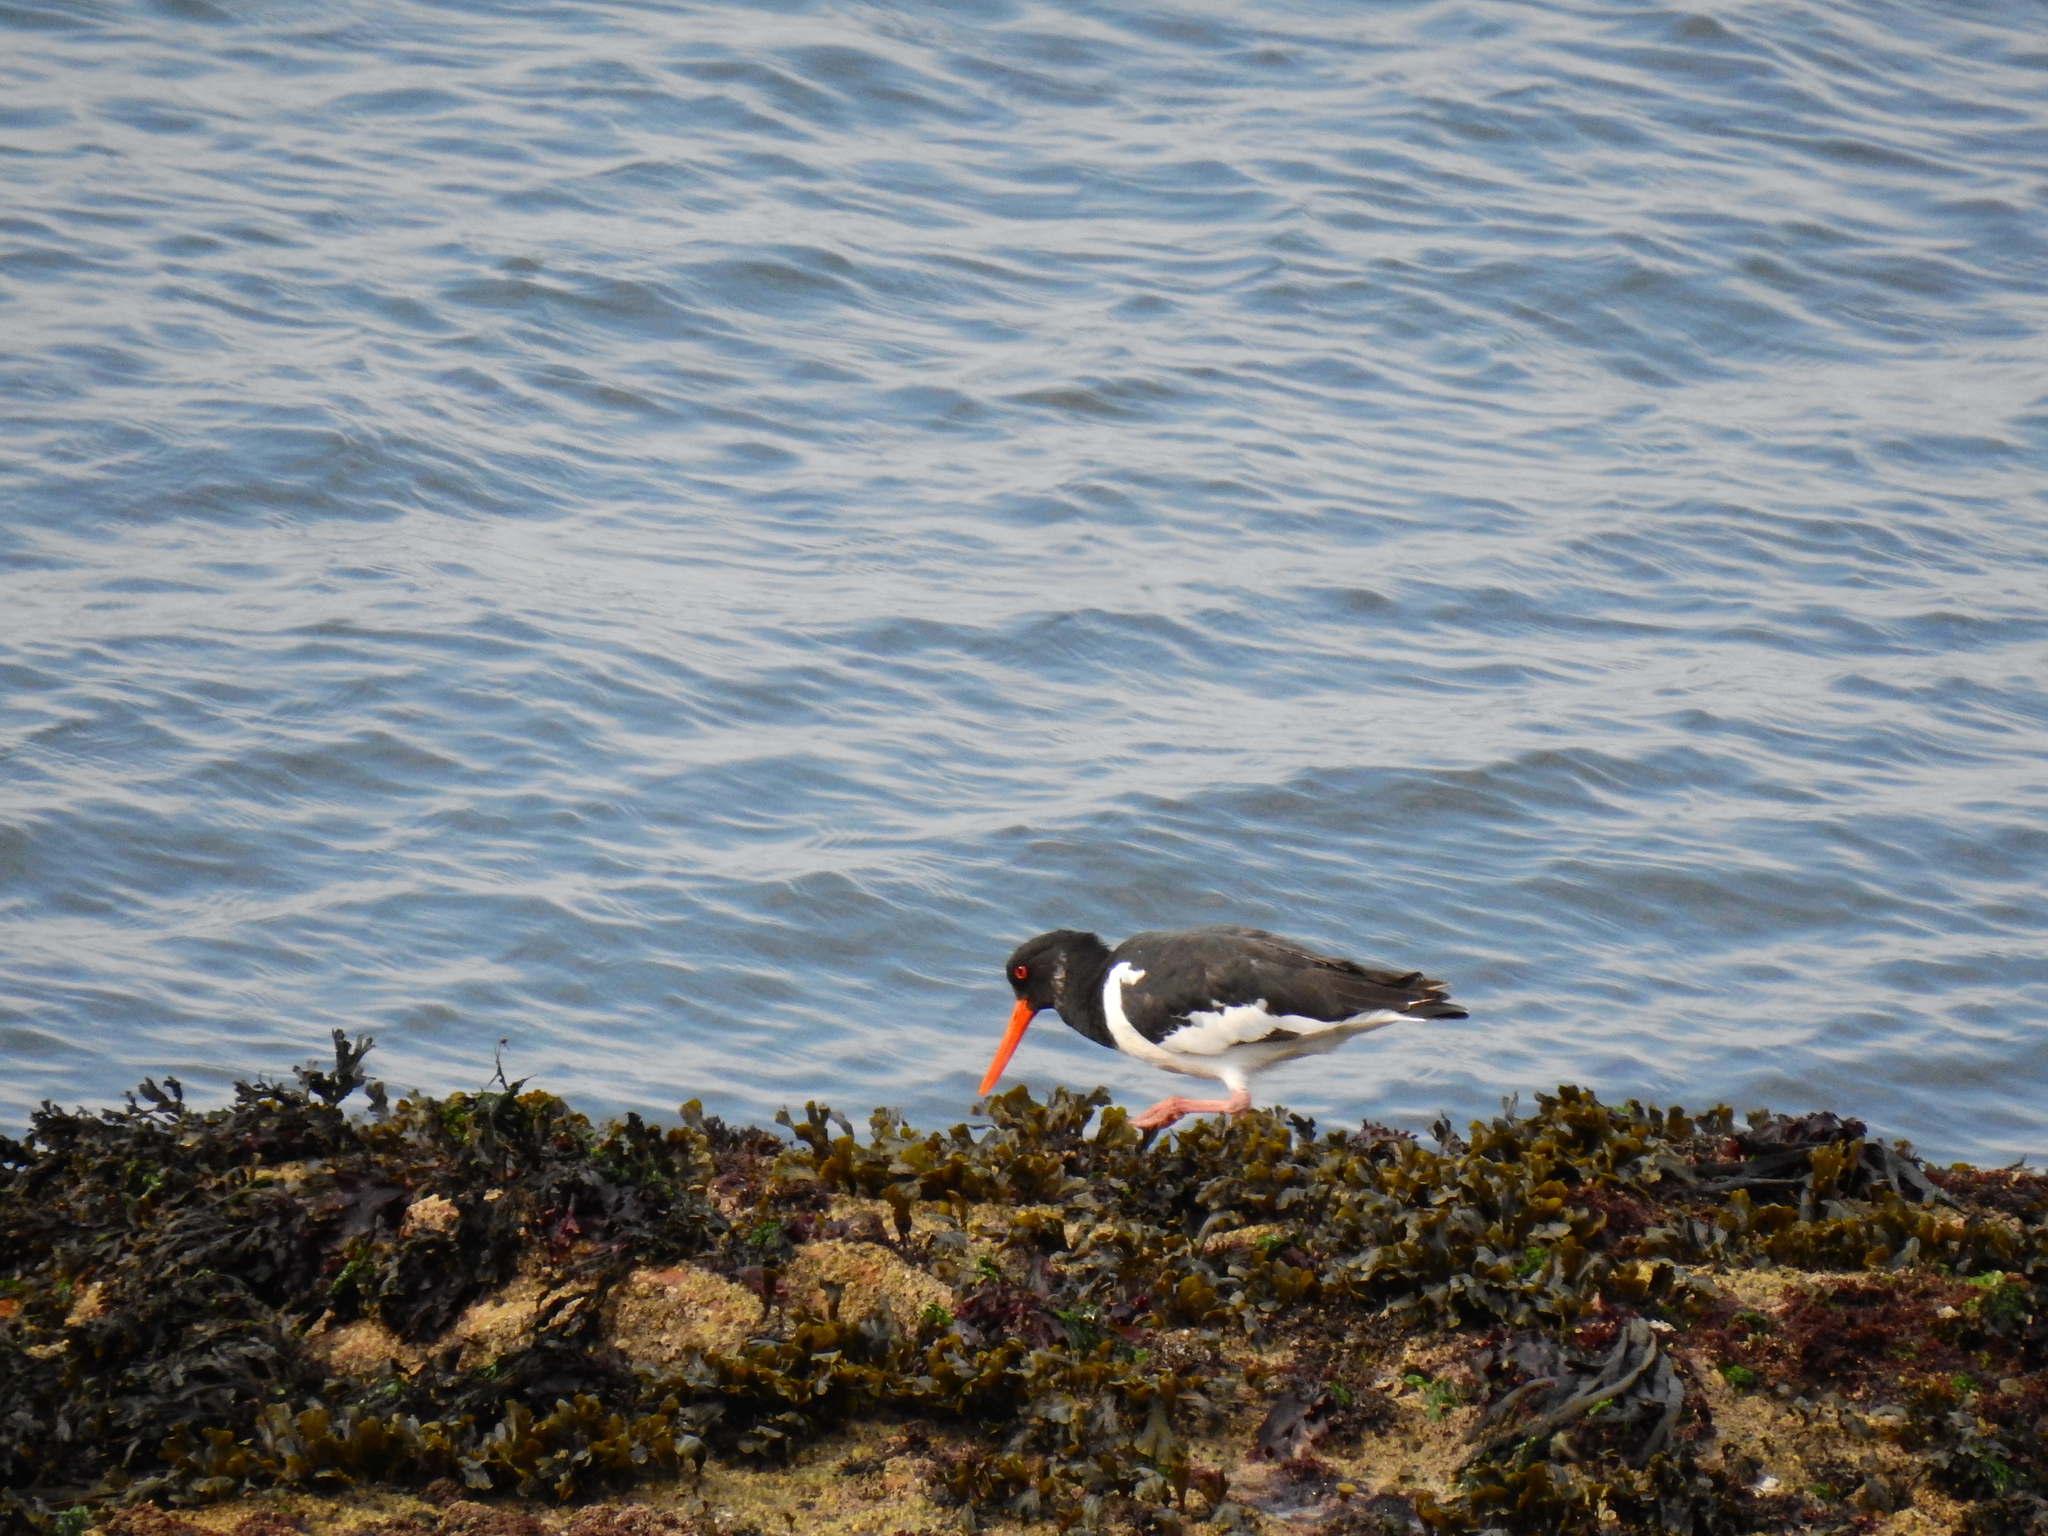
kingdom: Animalia
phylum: Chordata
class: Aves
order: Charadriiformes
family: Haematopodidae
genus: Haematopus
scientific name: Haematopus ostralegus
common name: Eurasian oystercatcher
